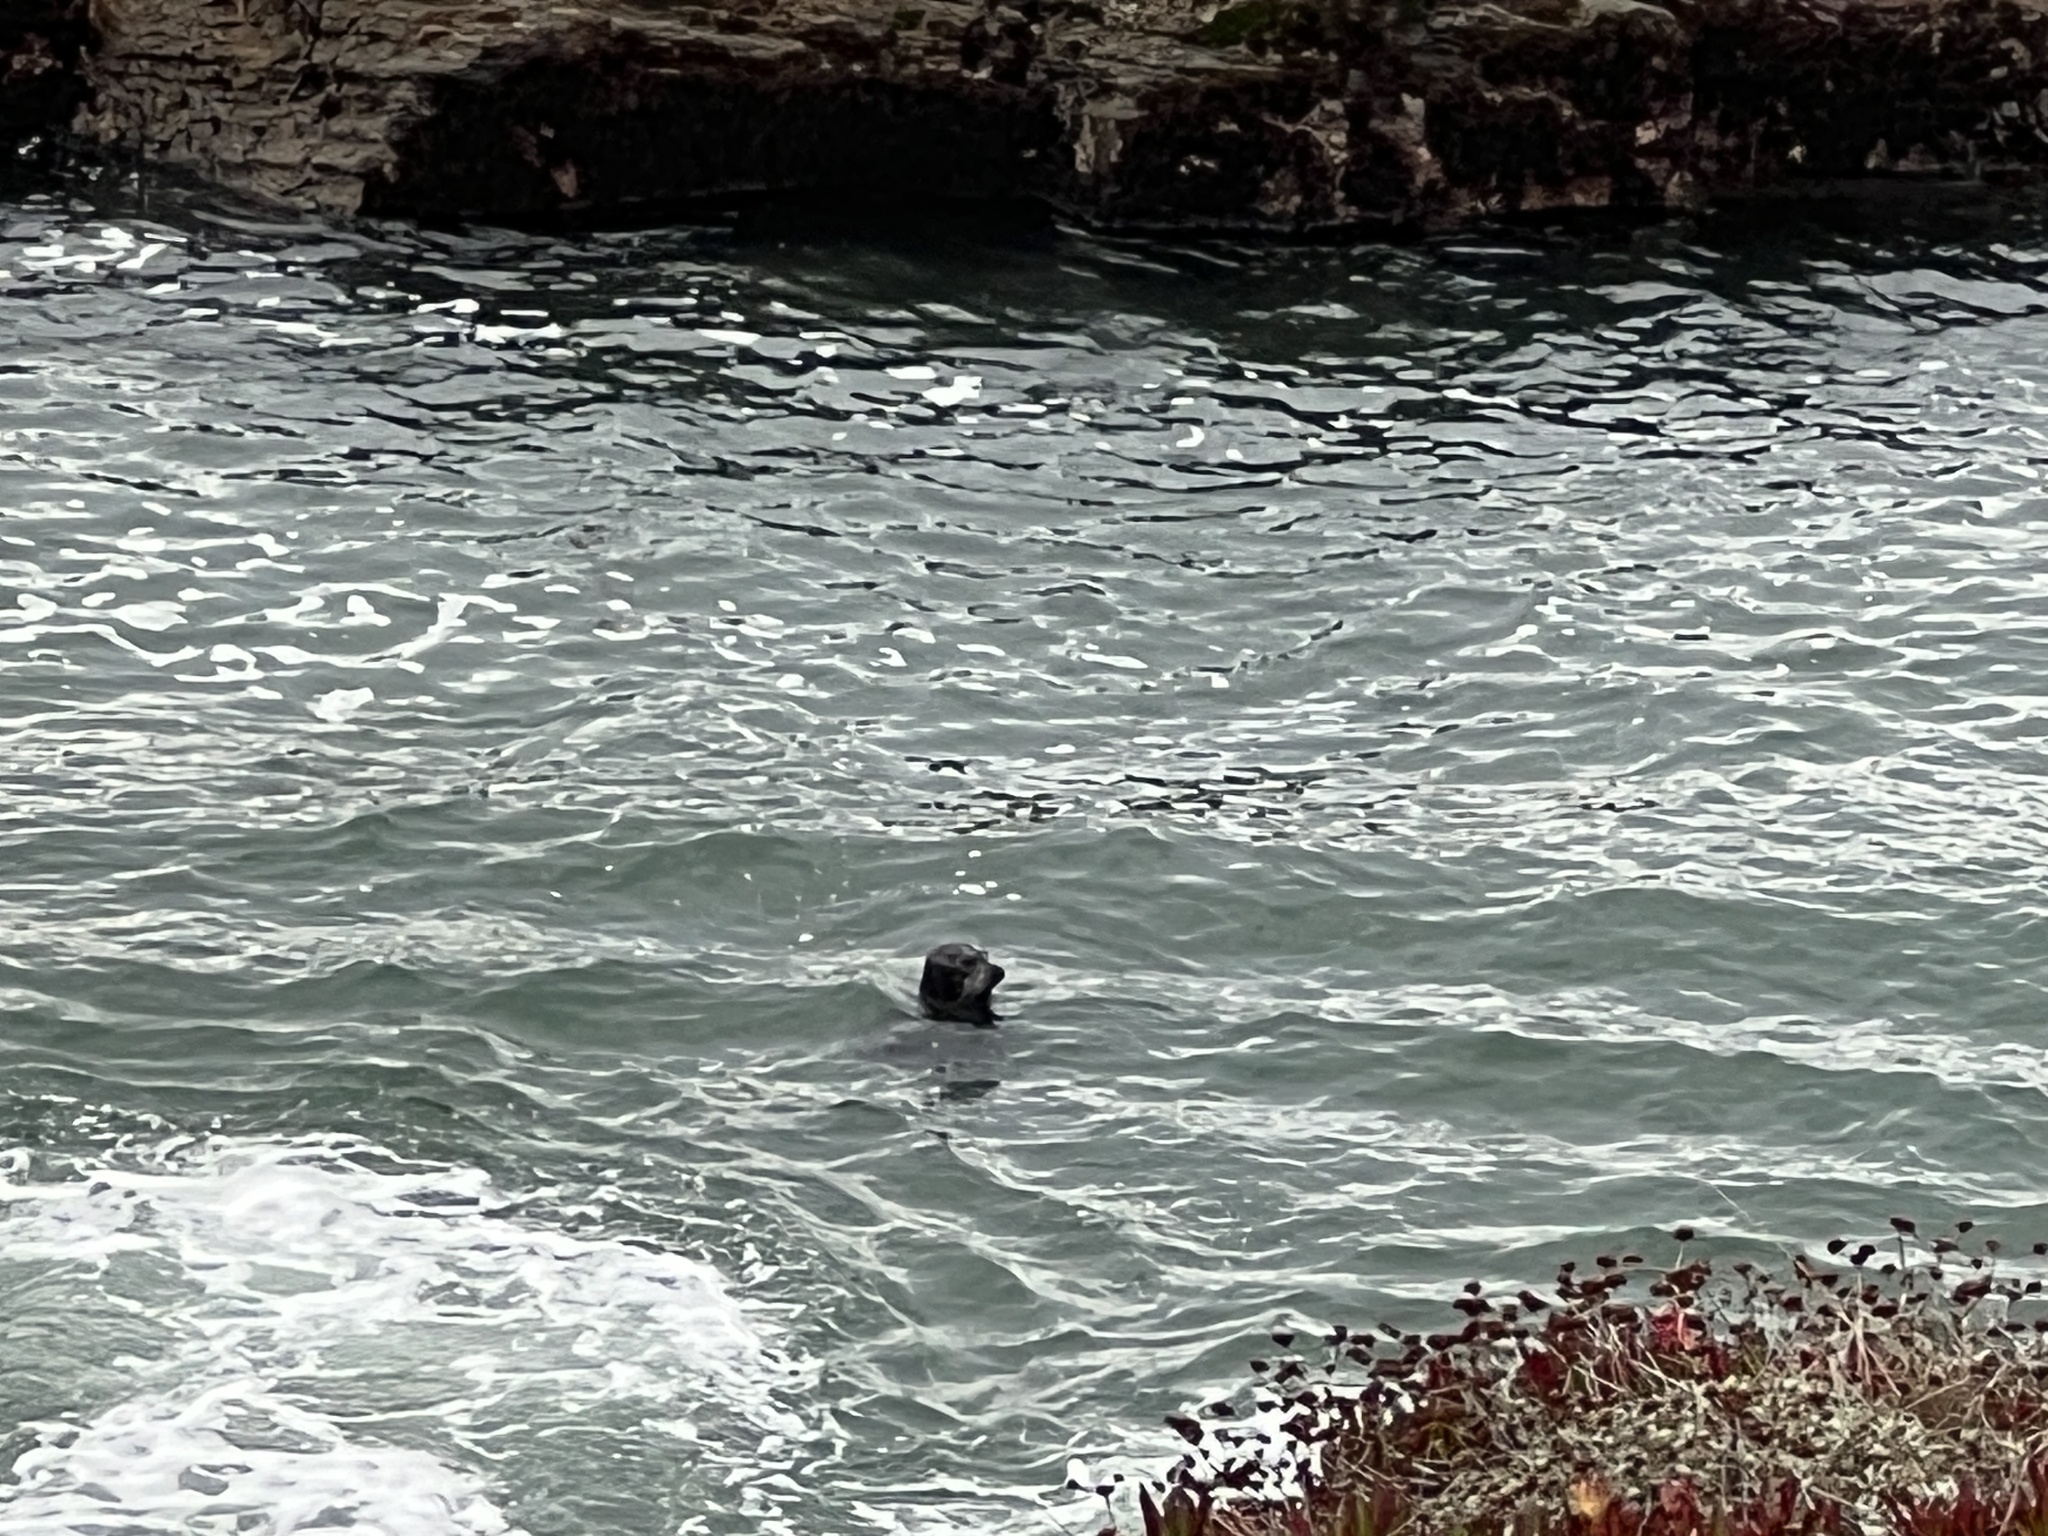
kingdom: Animalia
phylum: Chordata
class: Mammalia
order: Carnivora
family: Phocidae
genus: Phoca
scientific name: Phoca vitulina
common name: Harbor seal
